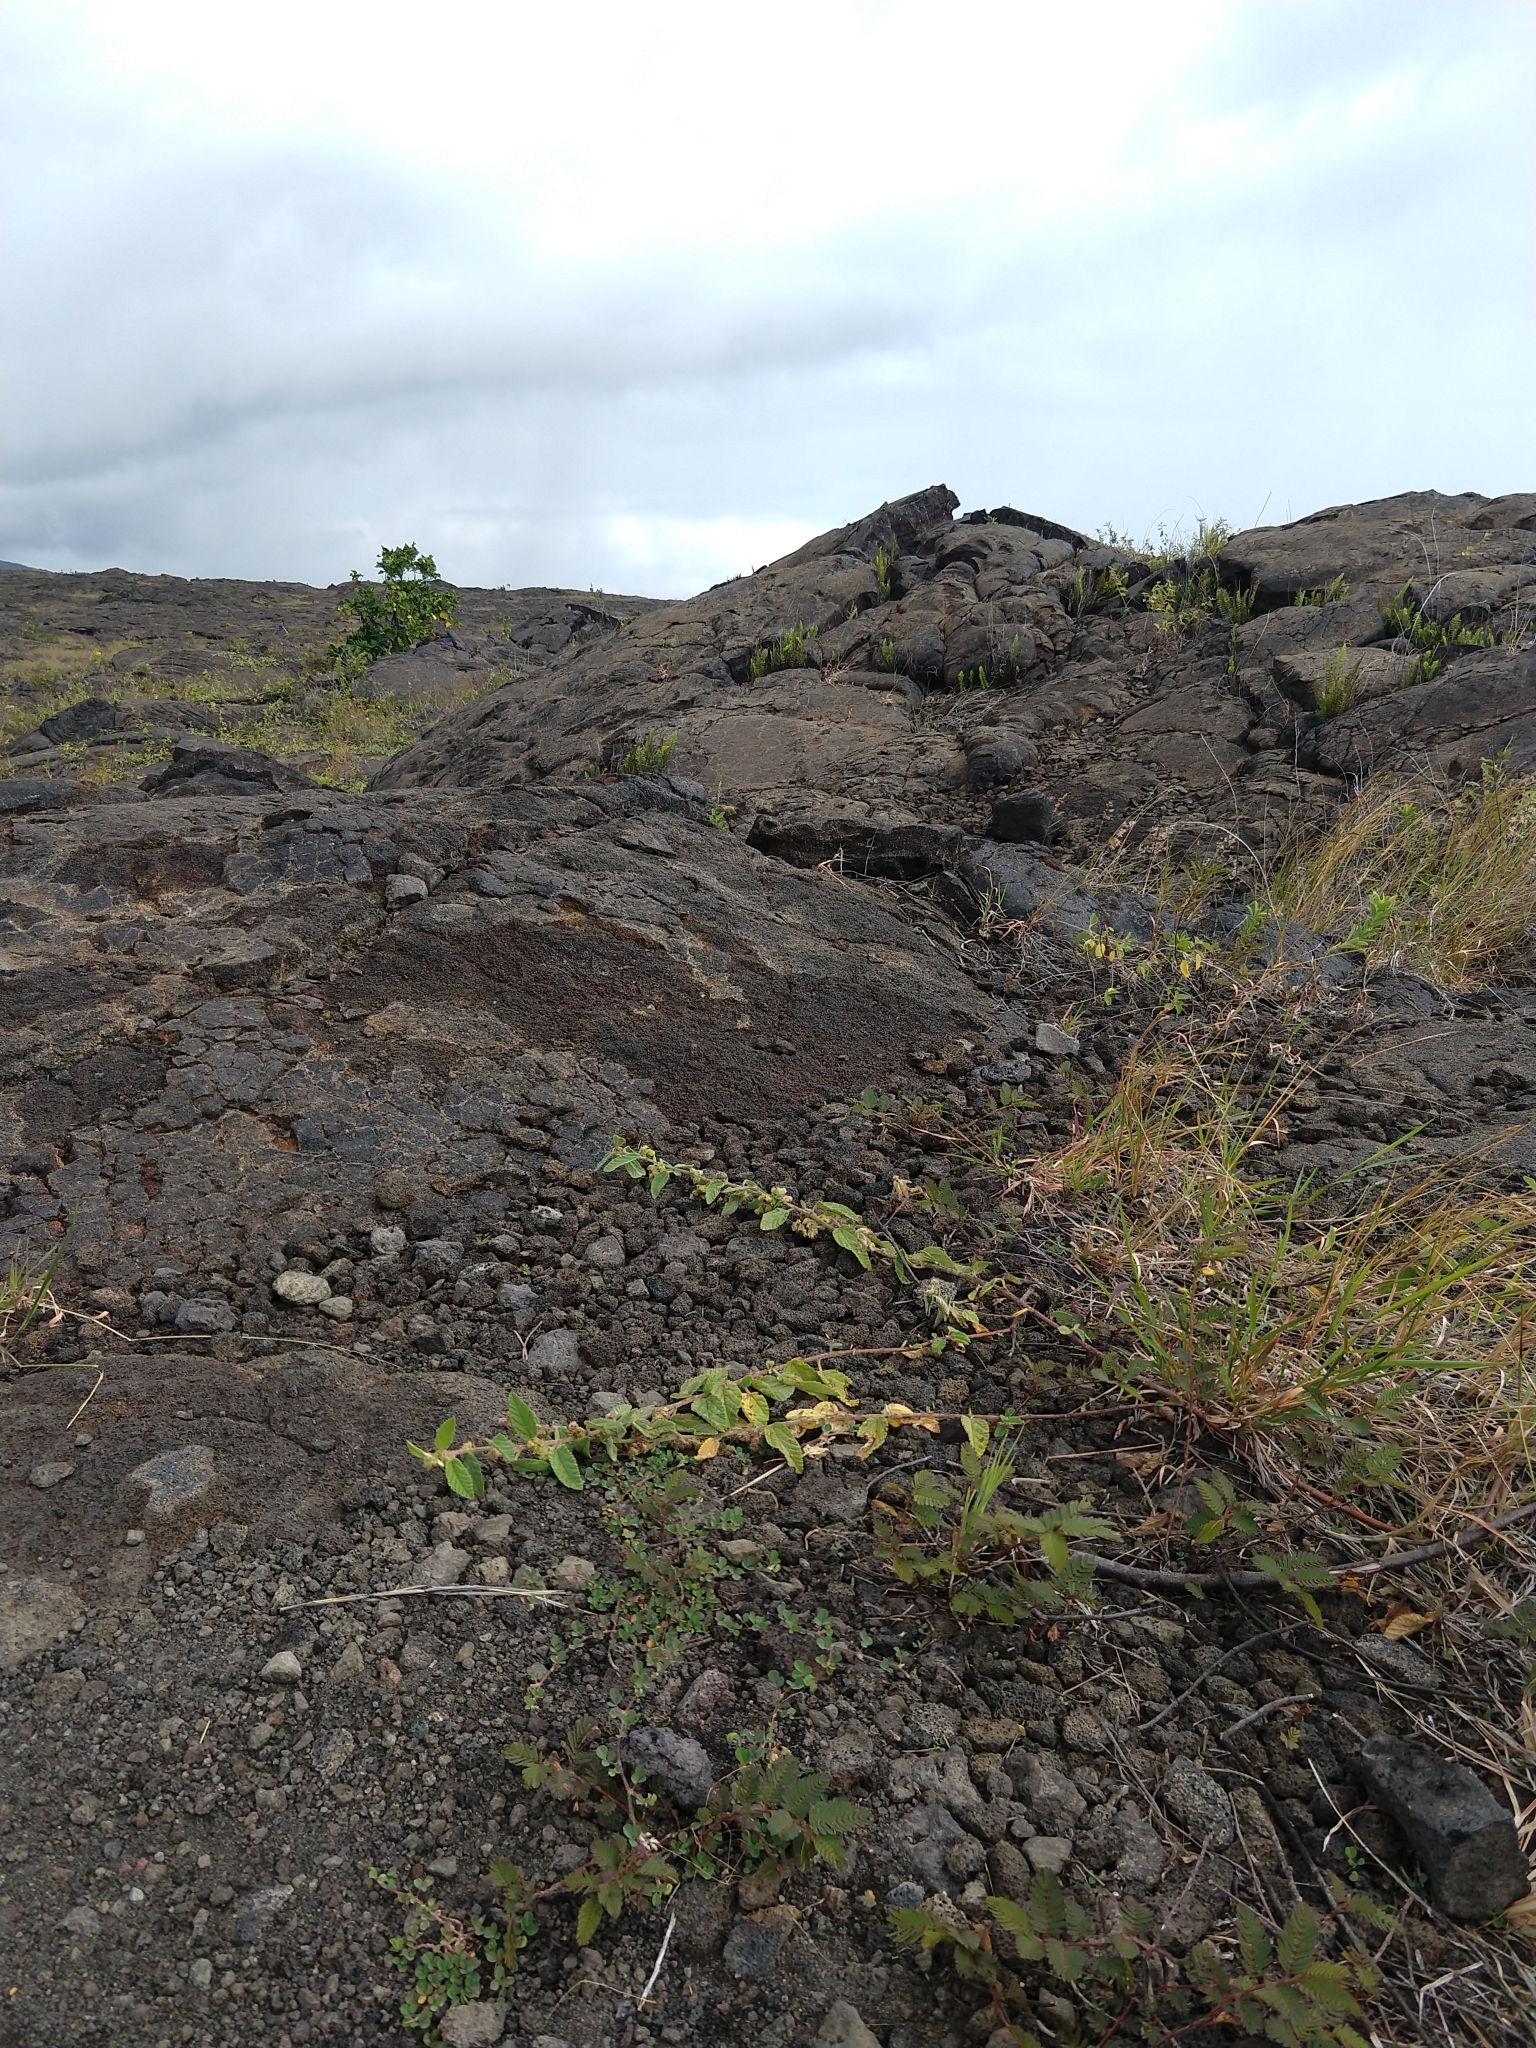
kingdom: Plantae
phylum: Tracheophyta
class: Magnoliopsida
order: Malvales
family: Malvaceae
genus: Waltheria
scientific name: Waltheria indica
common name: Leather-coat
